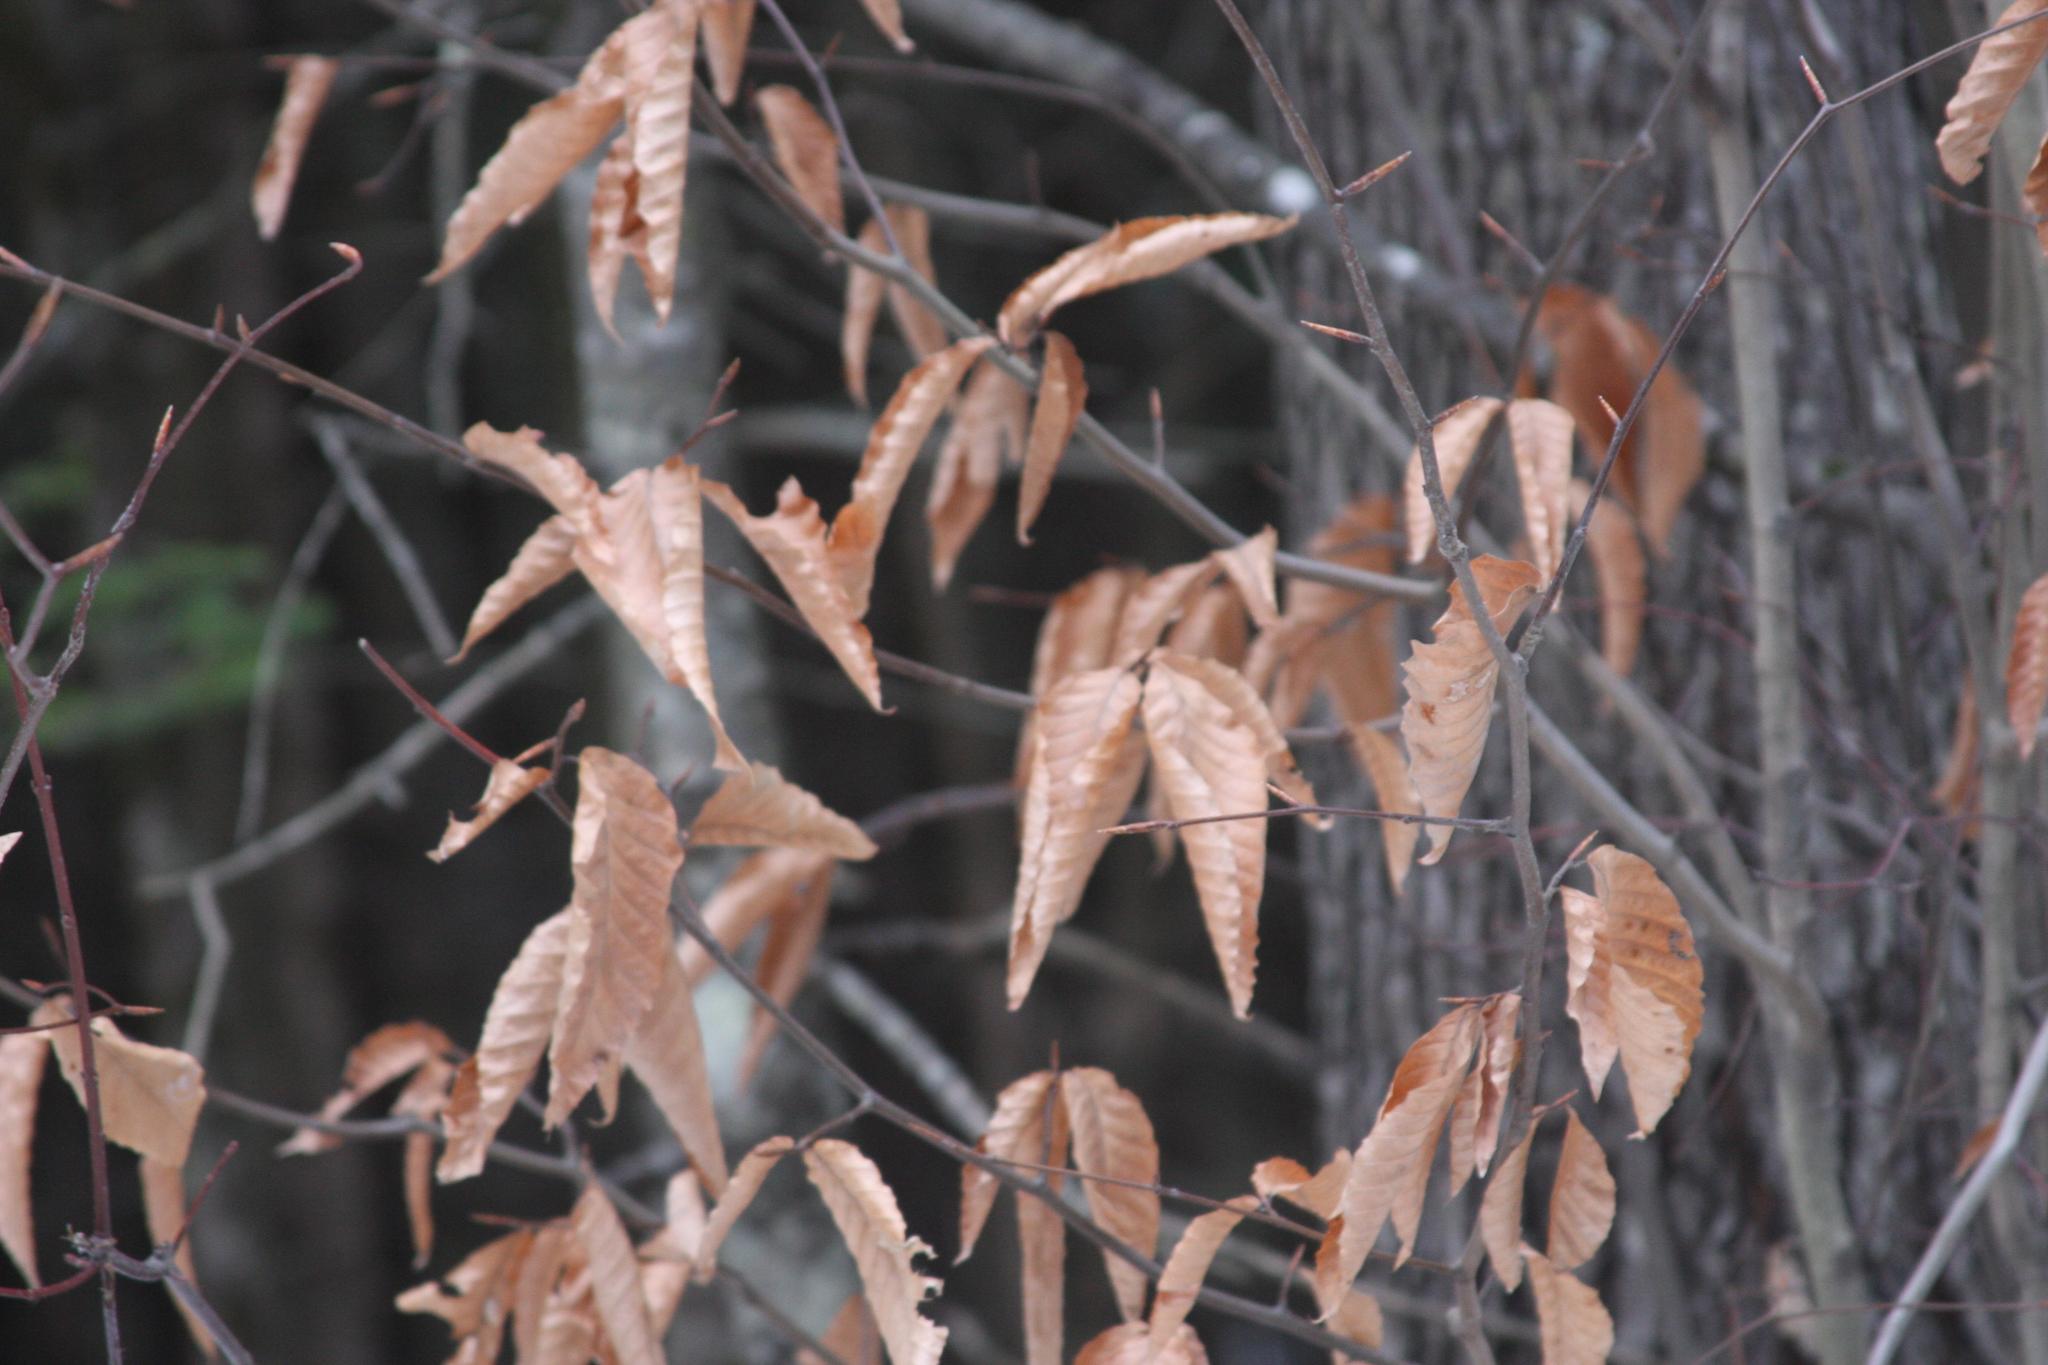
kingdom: Plantae
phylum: Tracheophyta
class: Magnoliopsida
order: Fagales
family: Fagaceae
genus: Fagus
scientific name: Fagus grandifolia
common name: American beech
